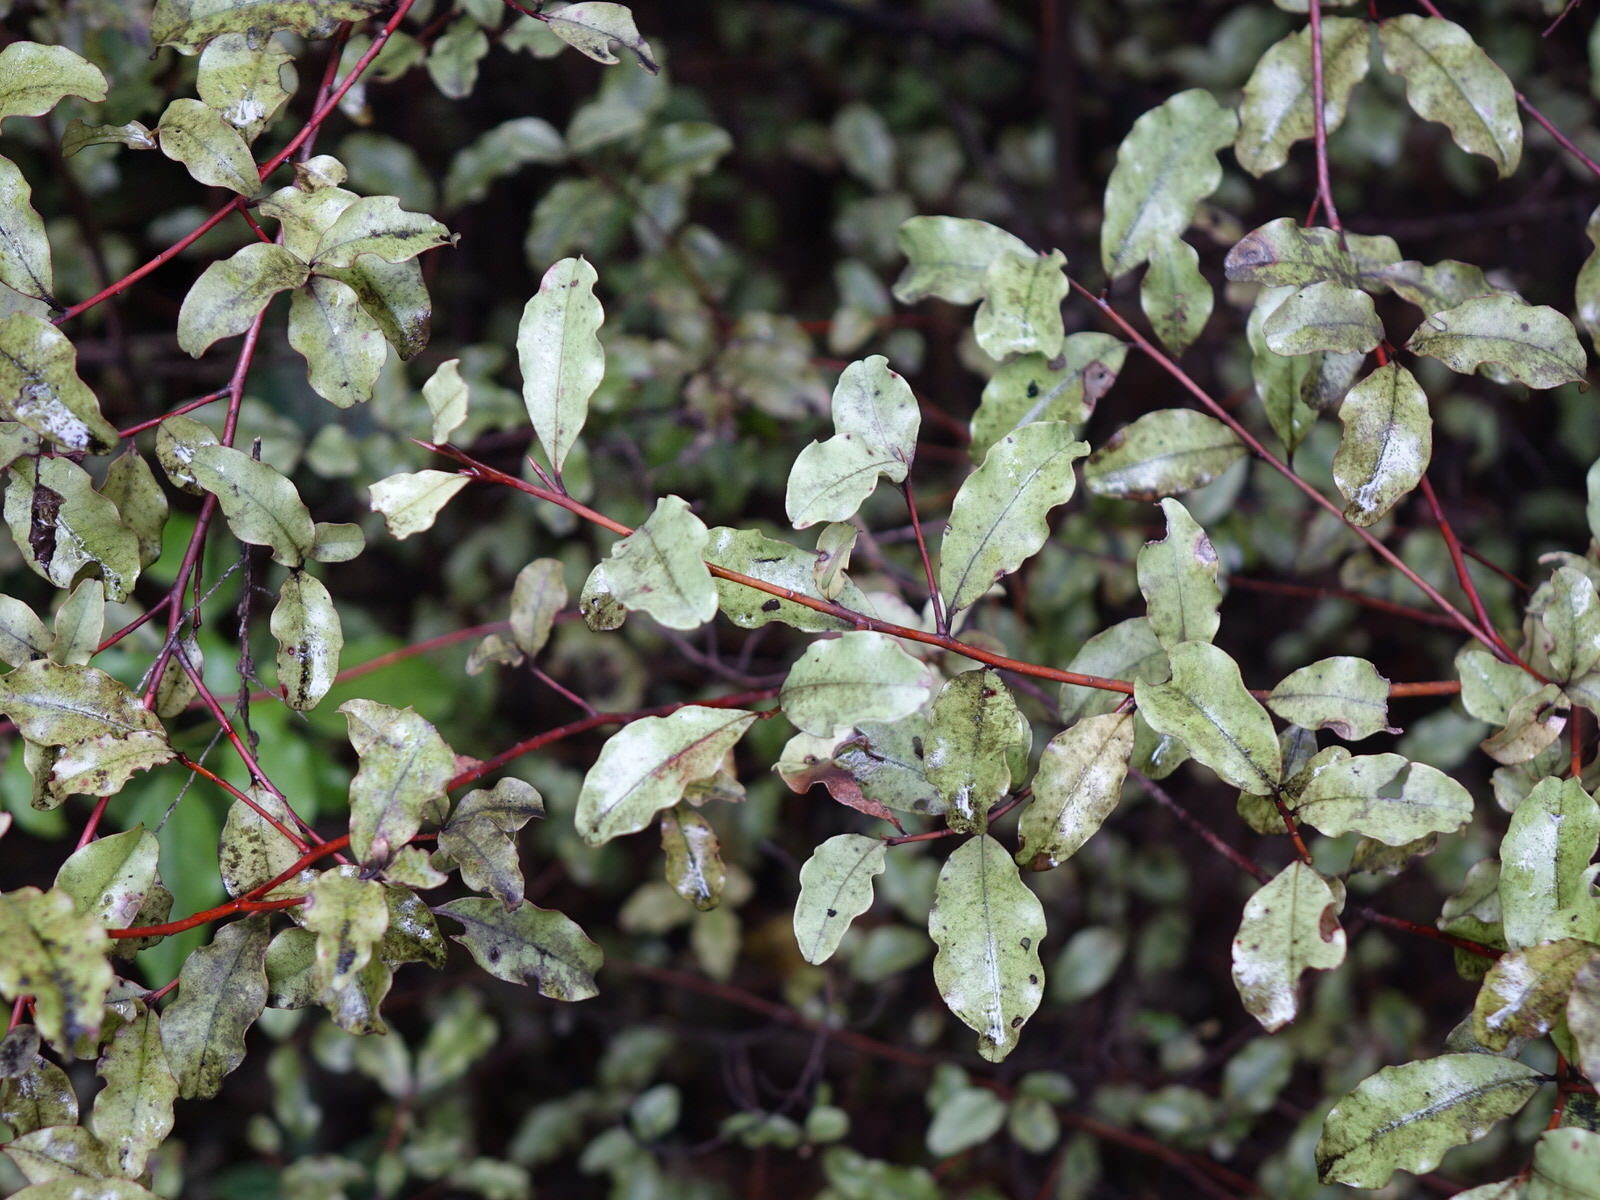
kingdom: Plantae
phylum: Tracheophyta
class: Magnoliopsida
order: Ericales
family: Primulaceae
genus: Myrsine
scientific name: Myrsine australis
